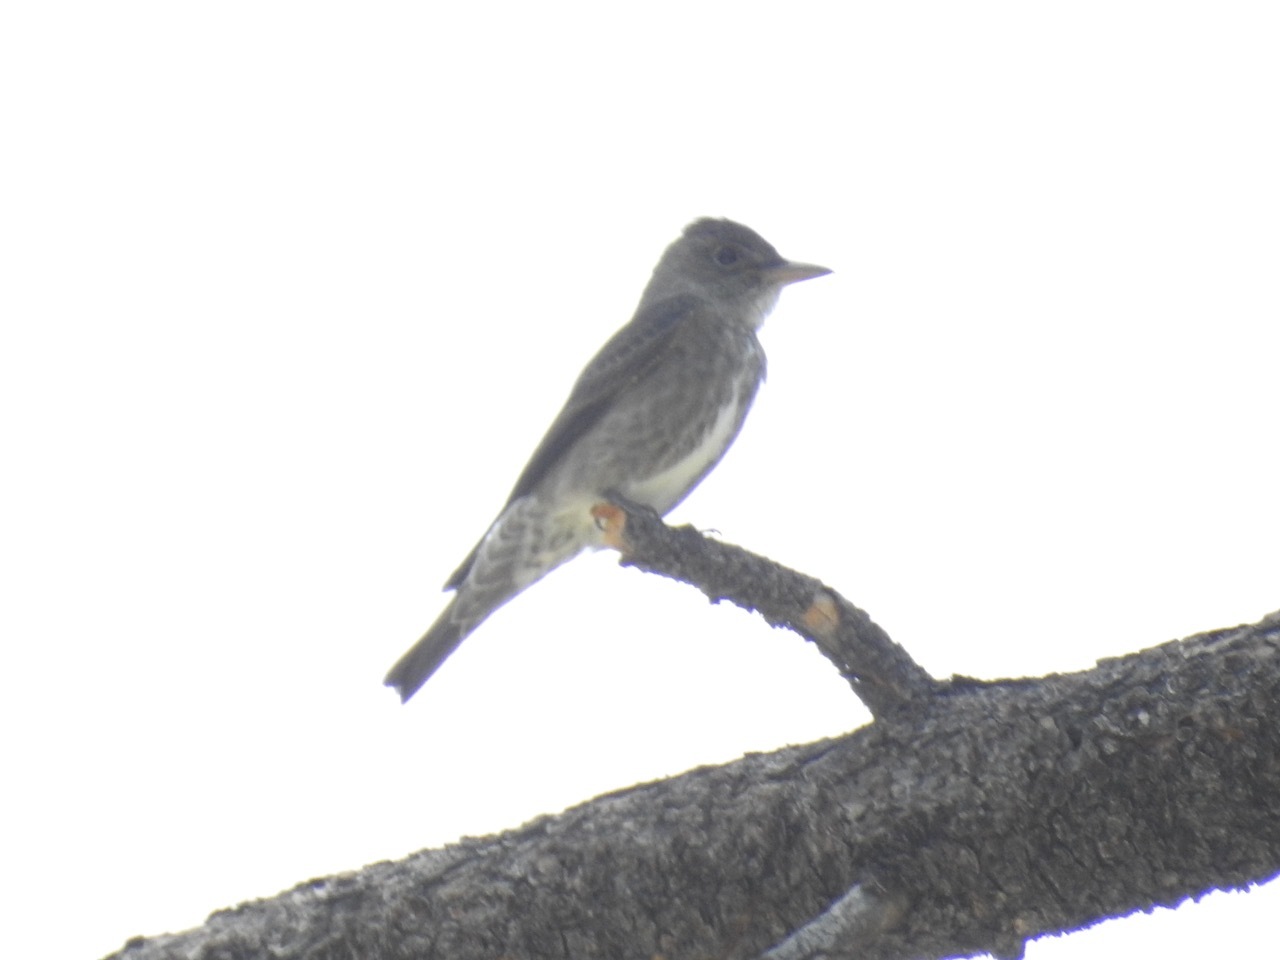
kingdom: Animalia
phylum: Chordata
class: Aves
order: Passeriformes
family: Tyrannidae
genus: Contopus
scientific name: Contopus cooperi
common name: Olive-sided flycatcher
